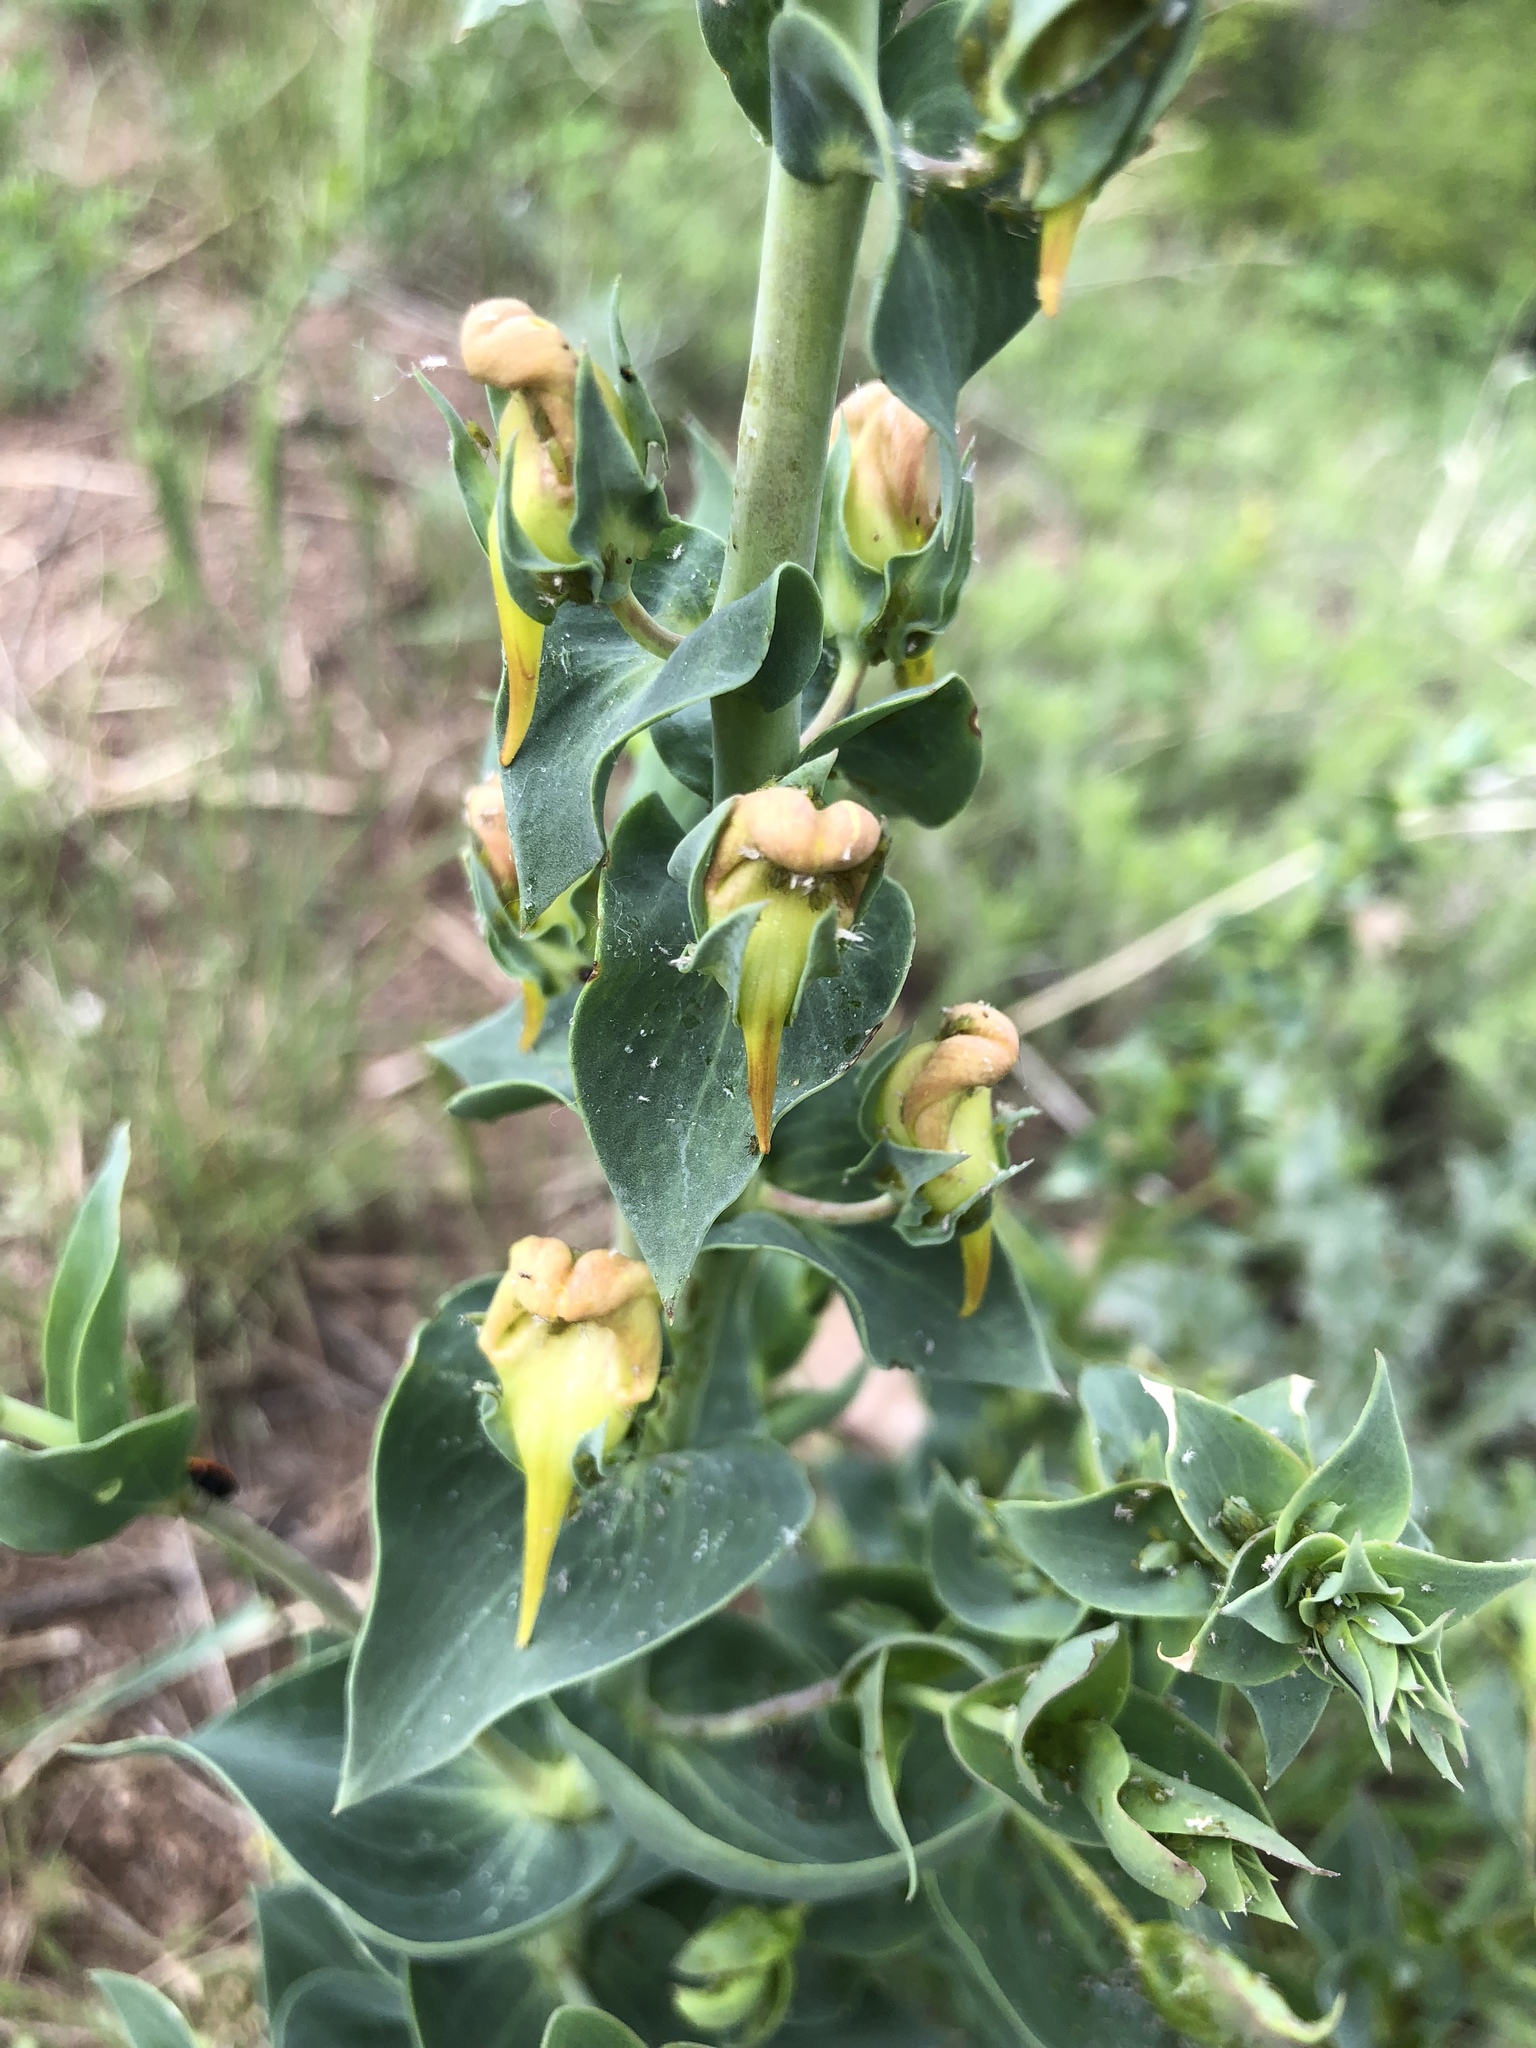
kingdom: Plantae
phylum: Tracheophyta
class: Magnoliopsida
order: Lamiales
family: Plantaginaceae
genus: Linaria
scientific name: Linaria dalmatica
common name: Dalmatian toadflax
